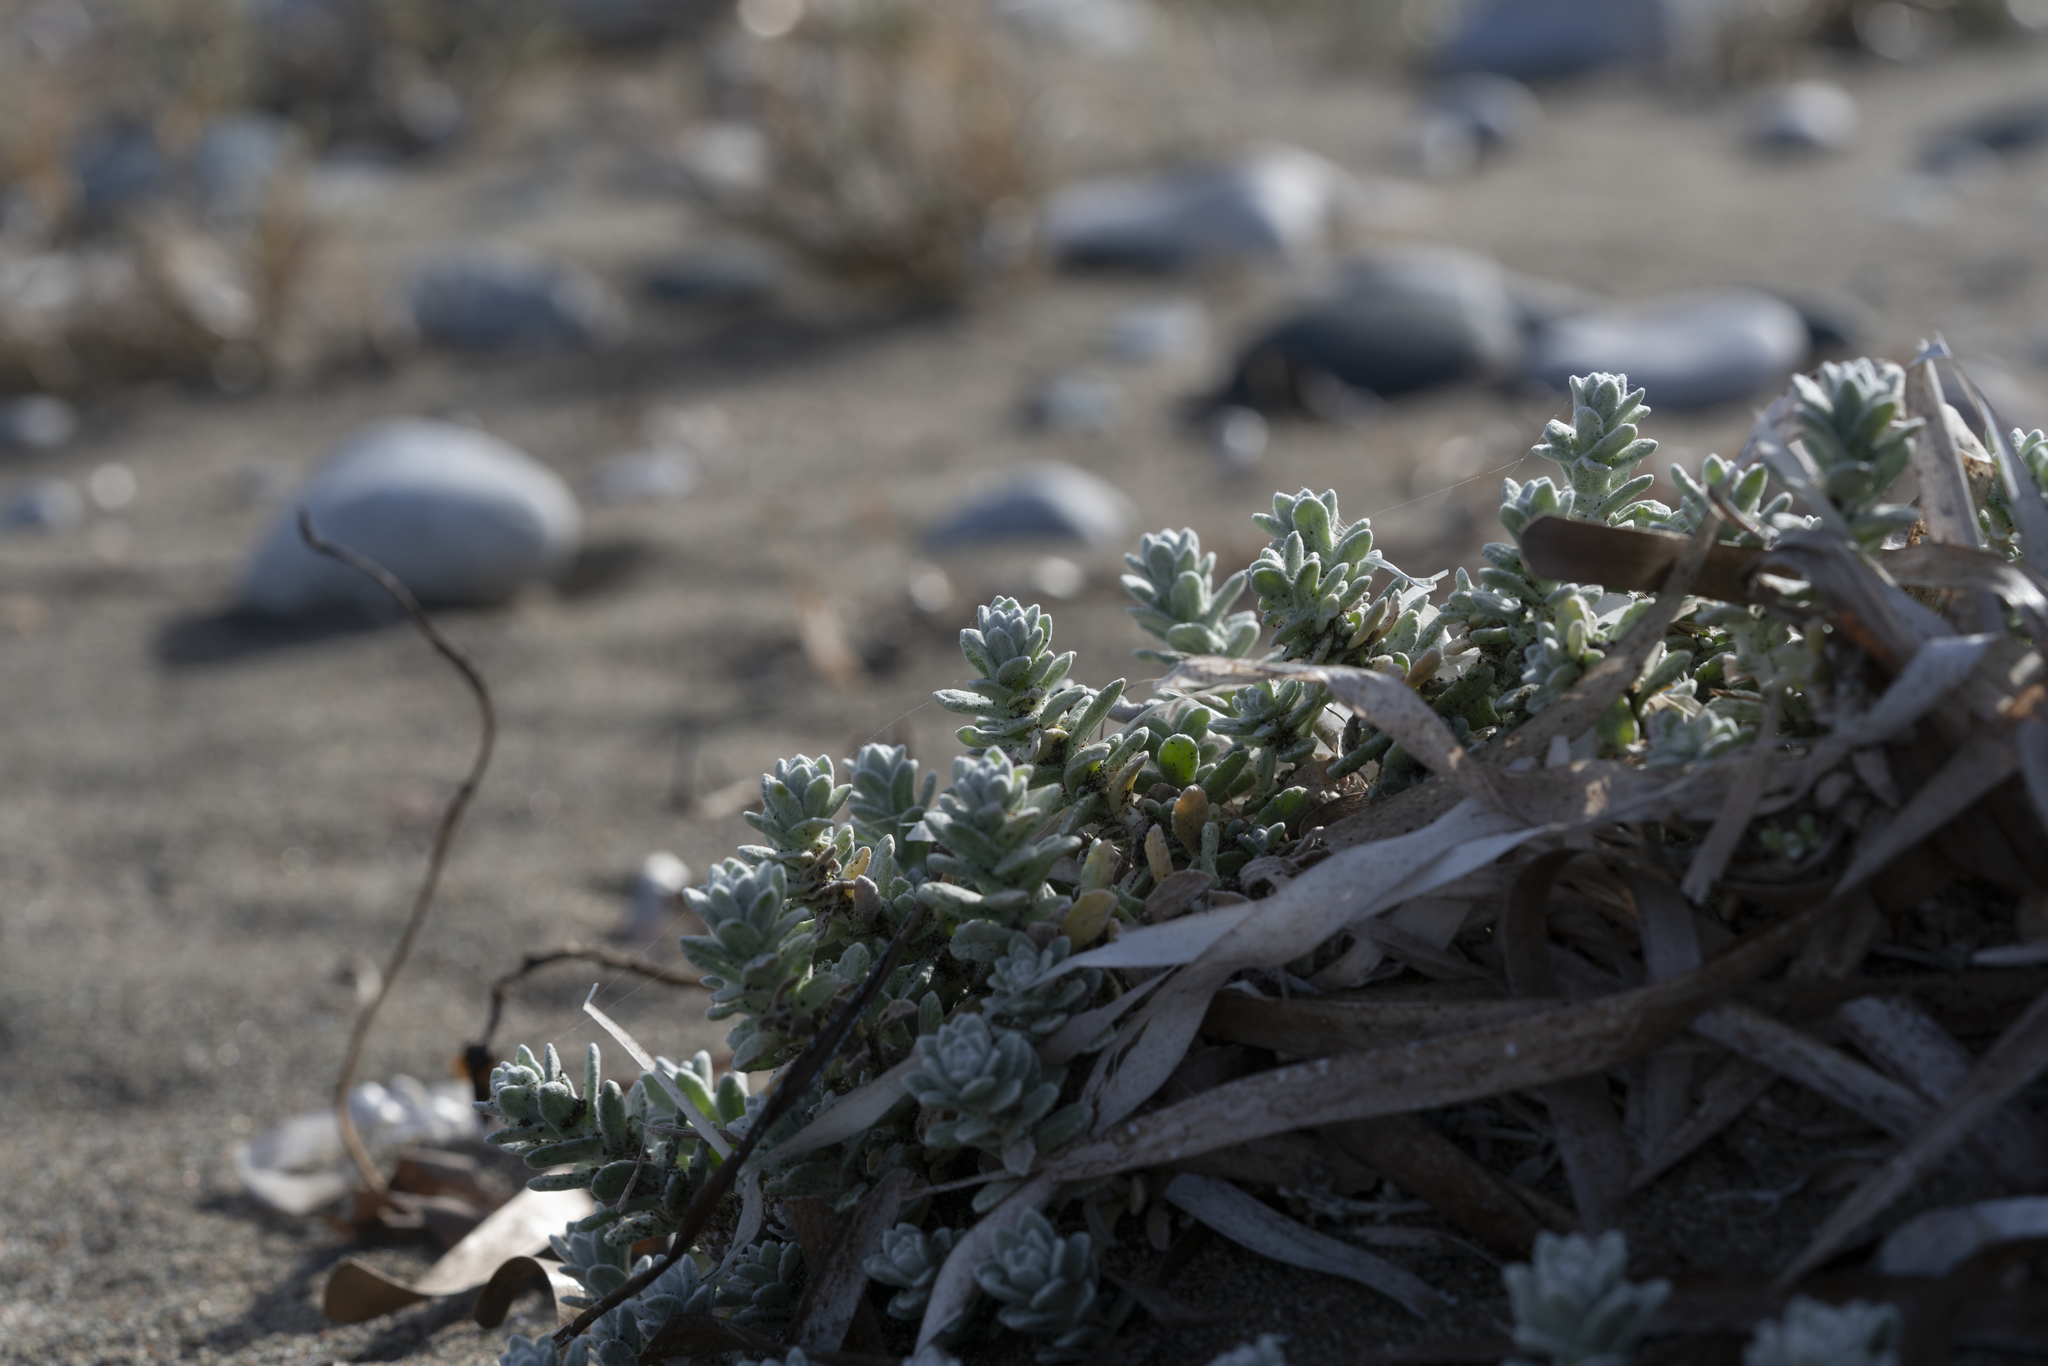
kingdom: Plantae
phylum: Tracheophyta
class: Magnoliopsida
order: Asterales
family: Asteraceae
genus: Achillea
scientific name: Achillea maritima
